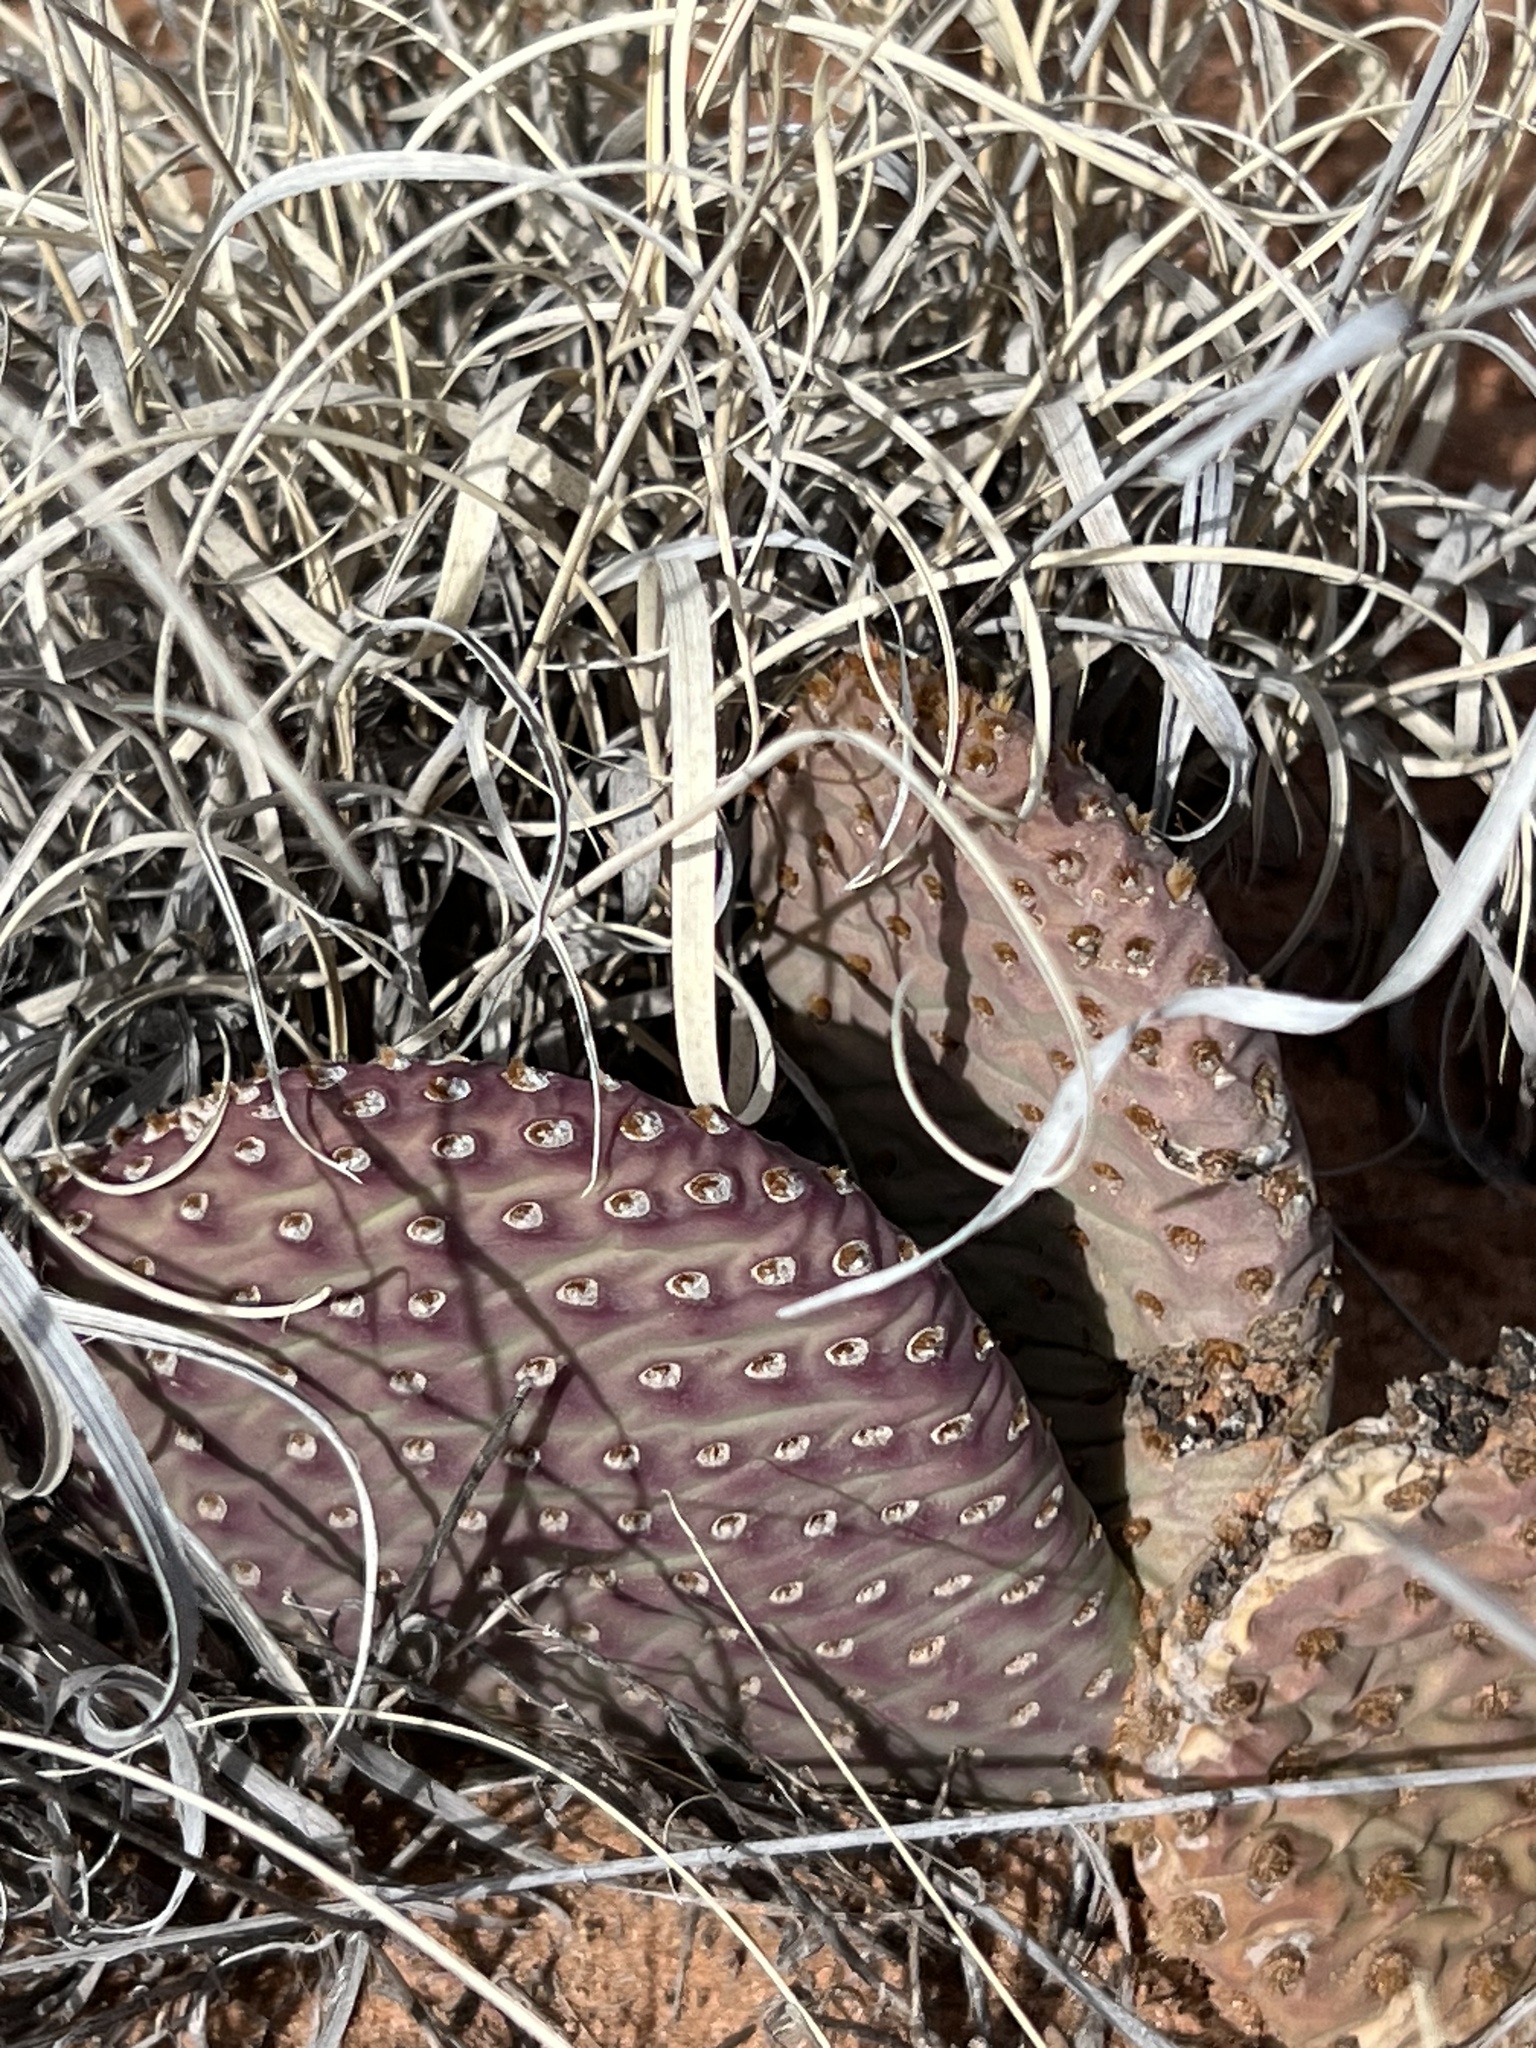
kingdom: Plantae
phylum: Tracheophyta
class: Magnoliopsida
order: Caryophyllales
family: Cactaceae
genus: Opuntia
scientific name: Opuntia aurea
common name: Golden prickly-pear
